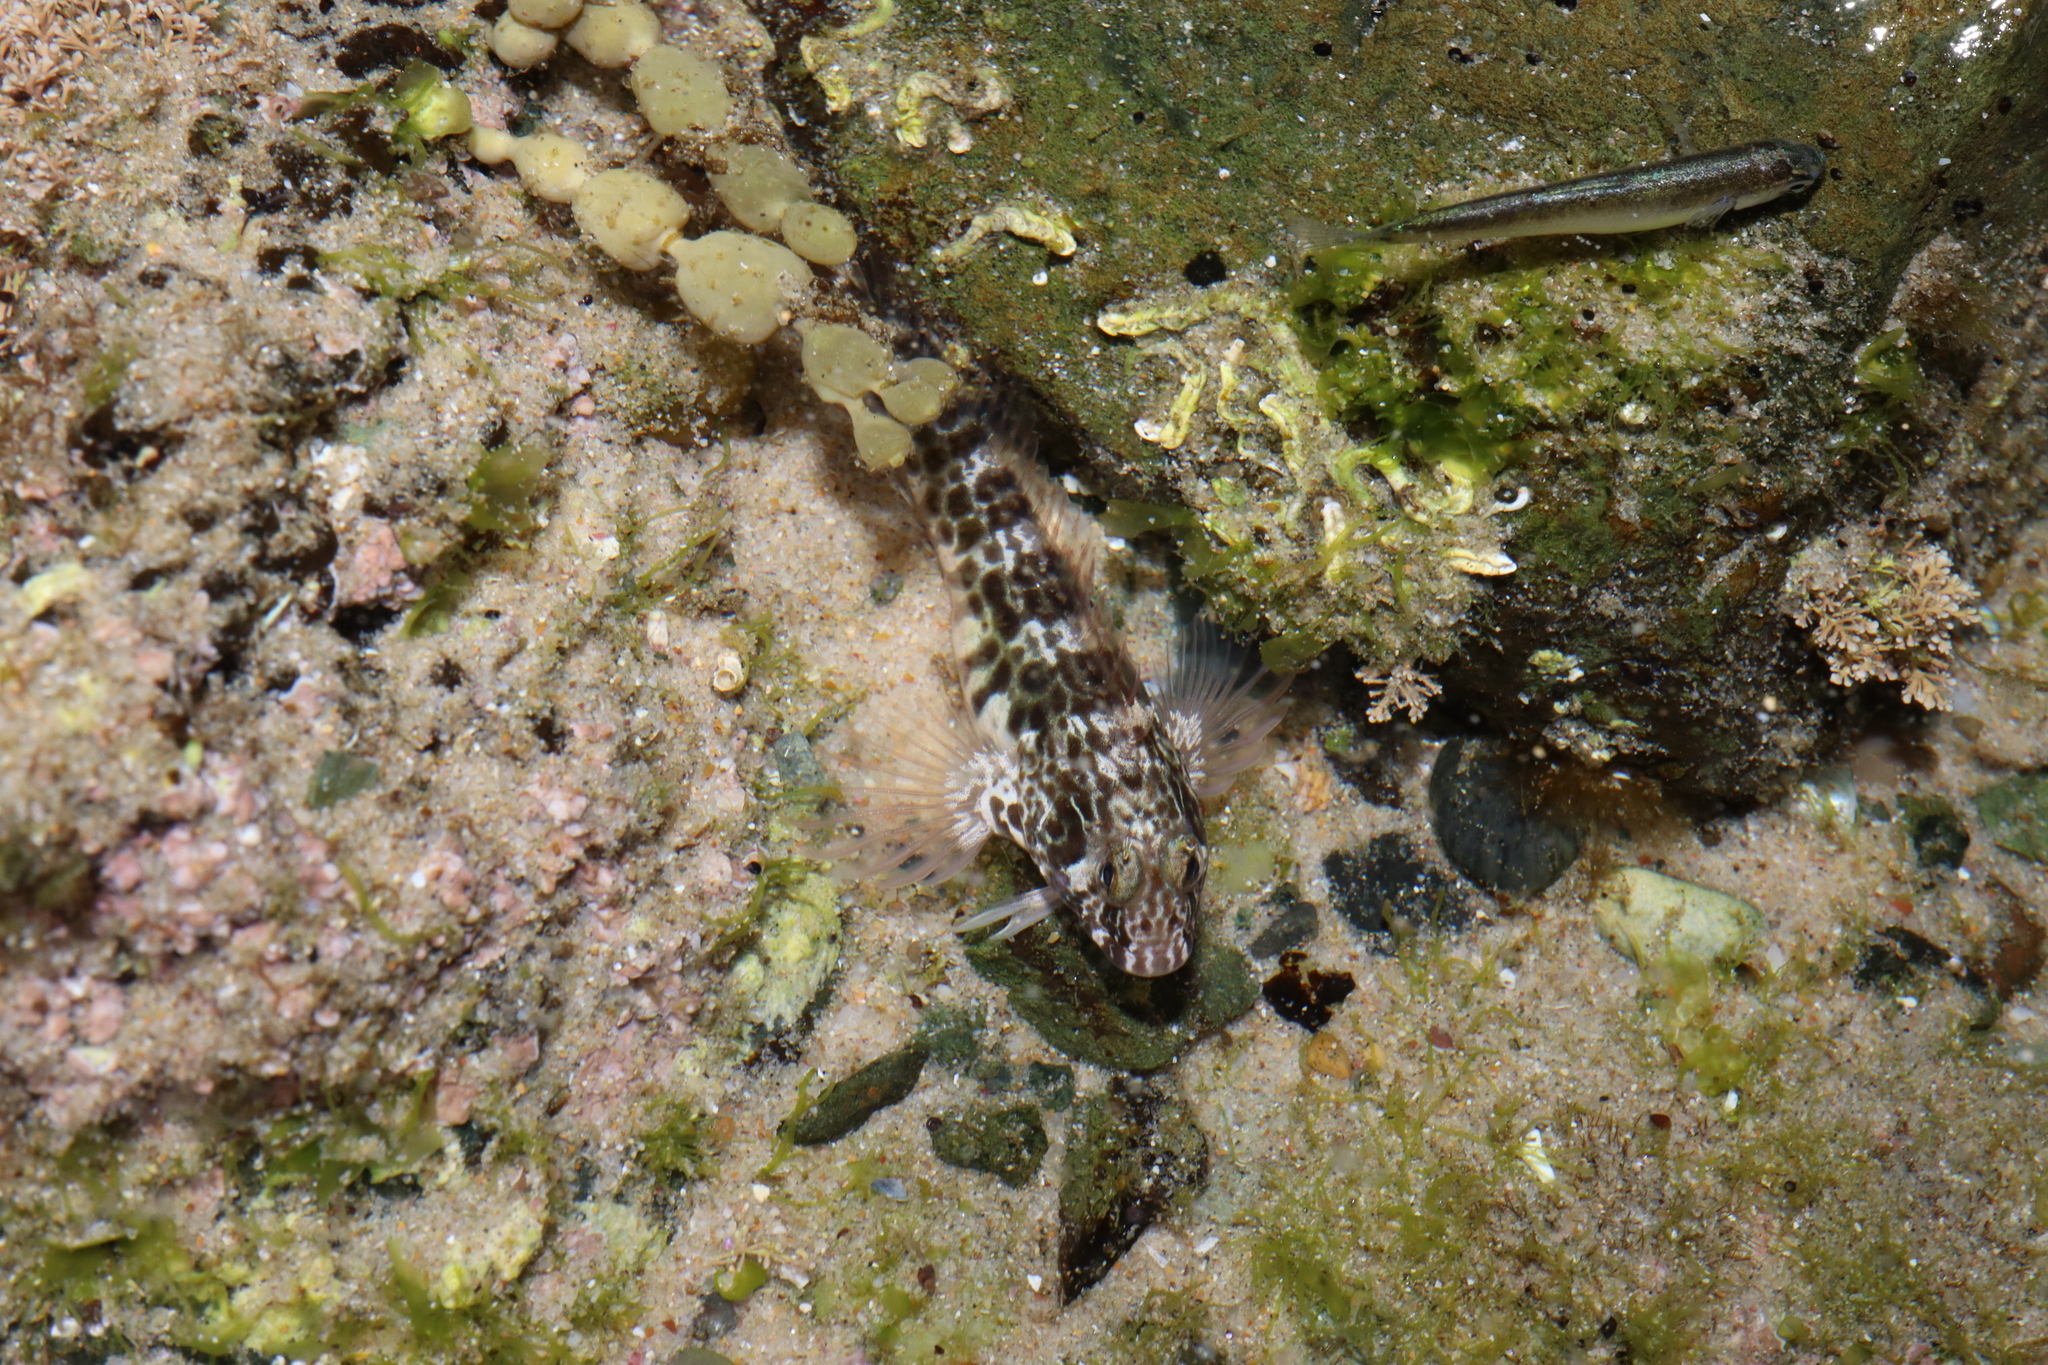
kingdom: Animalia
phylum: Chordata
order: Perciformes
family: Blenniidae
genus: Parablennius
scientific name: Parablennius intermedius
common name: Horned blenny
